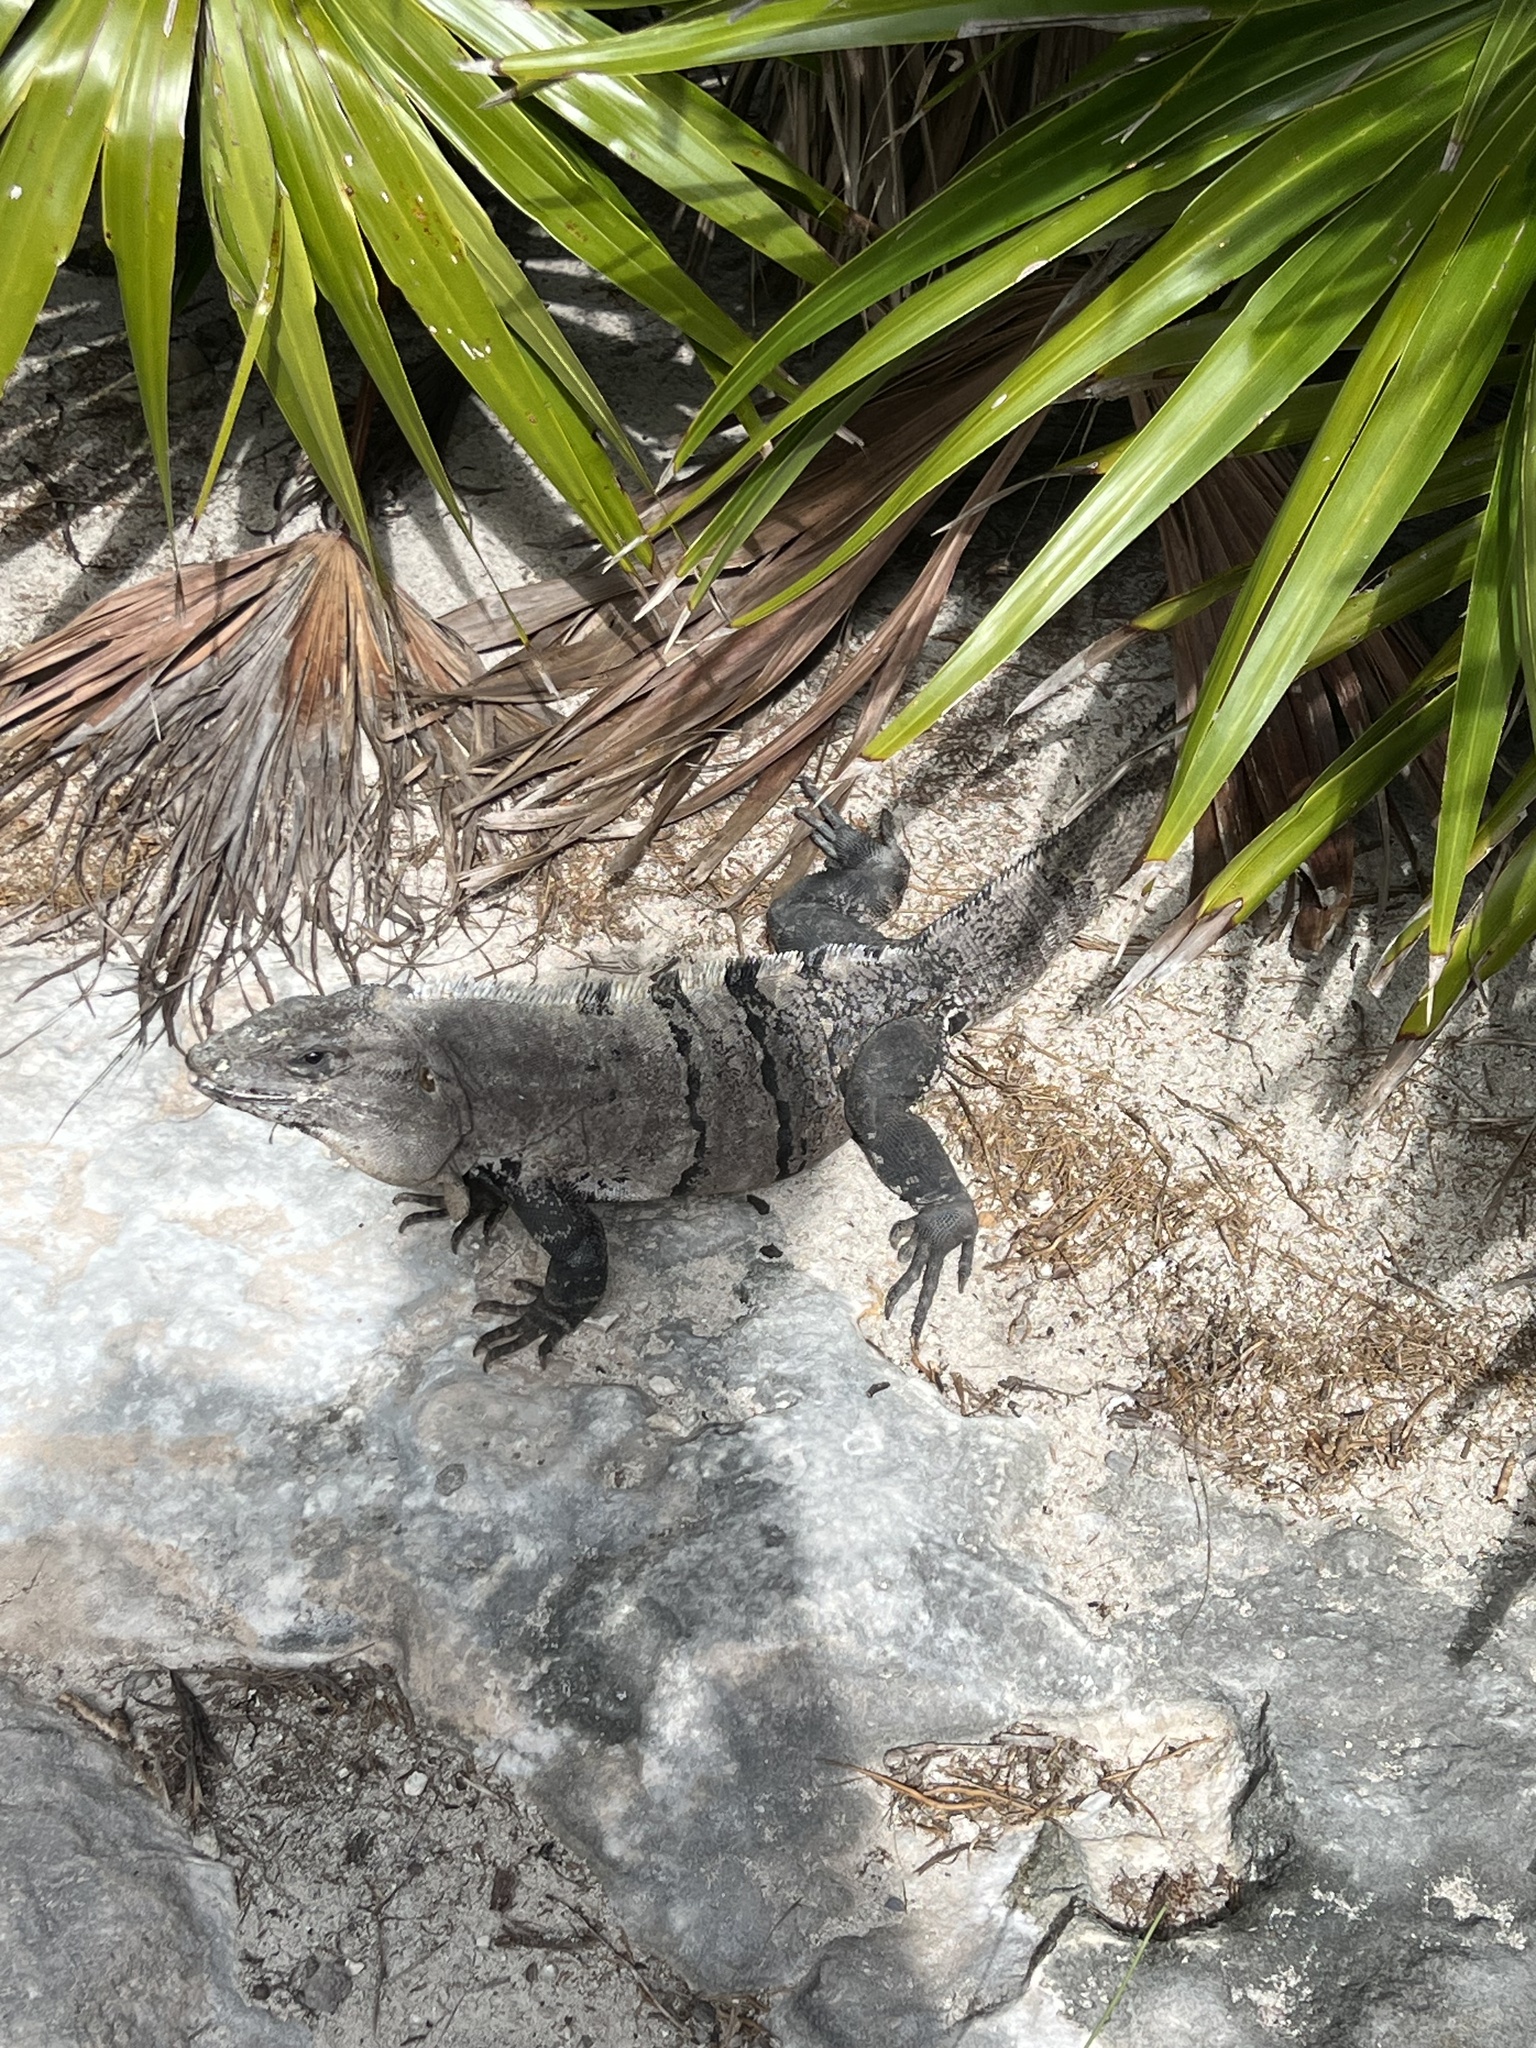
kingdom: Animalia
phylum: Chordata
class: Squamata
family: Iguanidae
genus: Ctenosaura
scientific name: Ctenosaura similis
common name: Black spiny-tailed iguana
